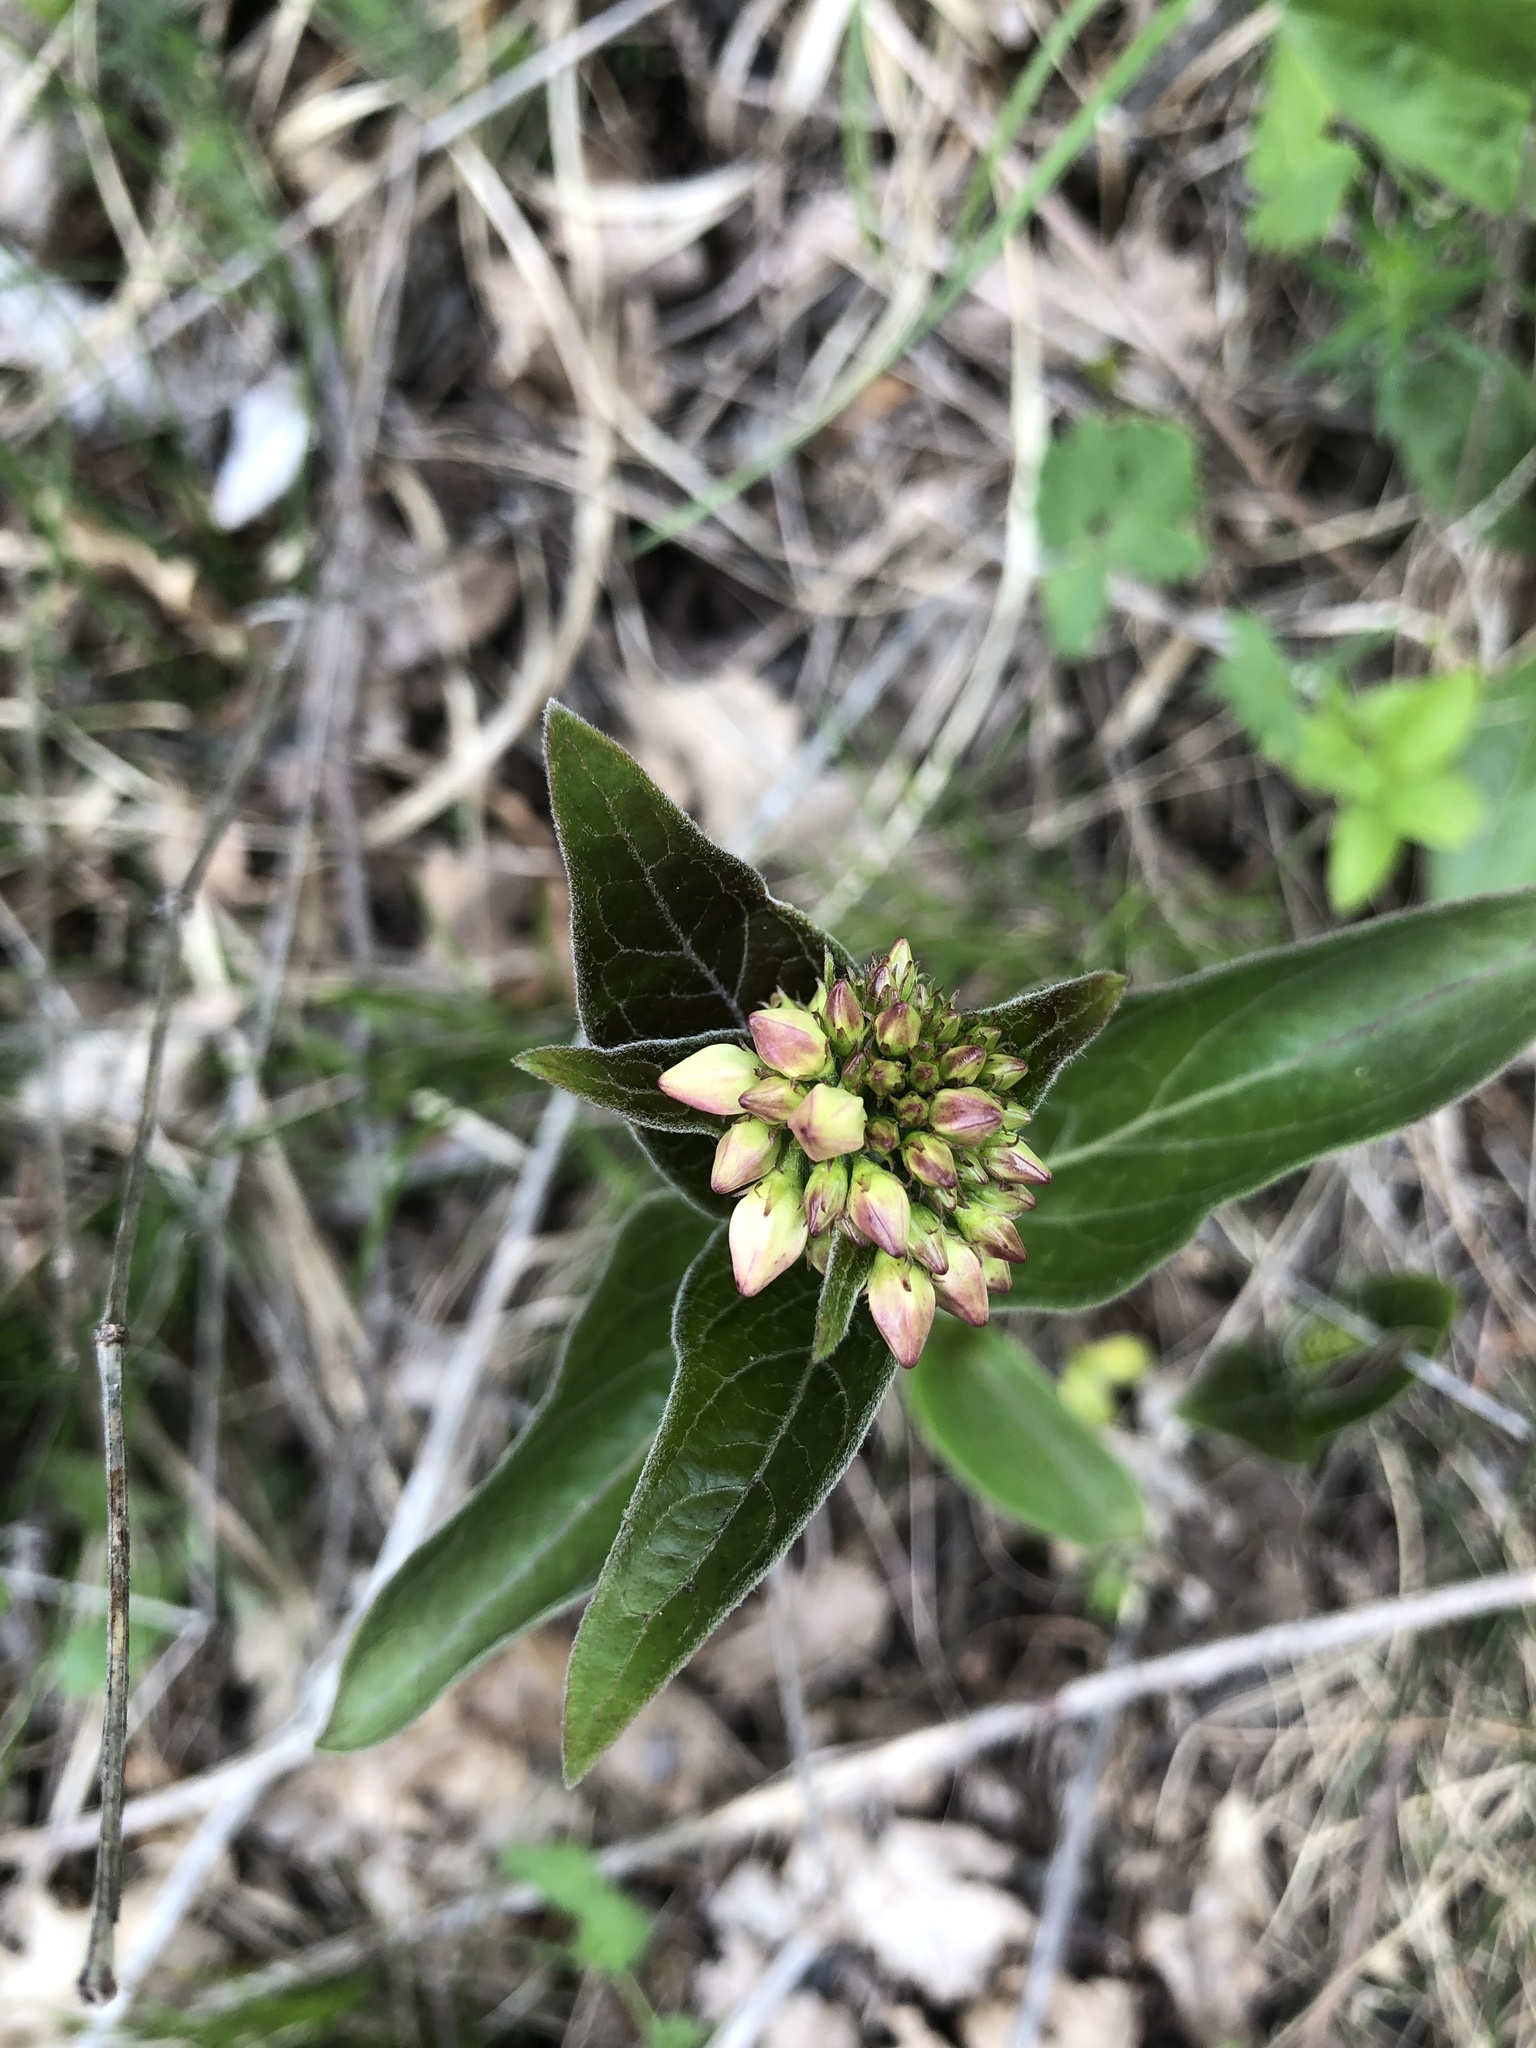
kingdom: Plantae
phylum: Tracheophyta
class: Magnoliopsida
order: Gentianales
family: Apocynaceae
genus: Vincetoxicum
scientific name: Vincetoxicum hirundinaria
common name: White swallowwort
